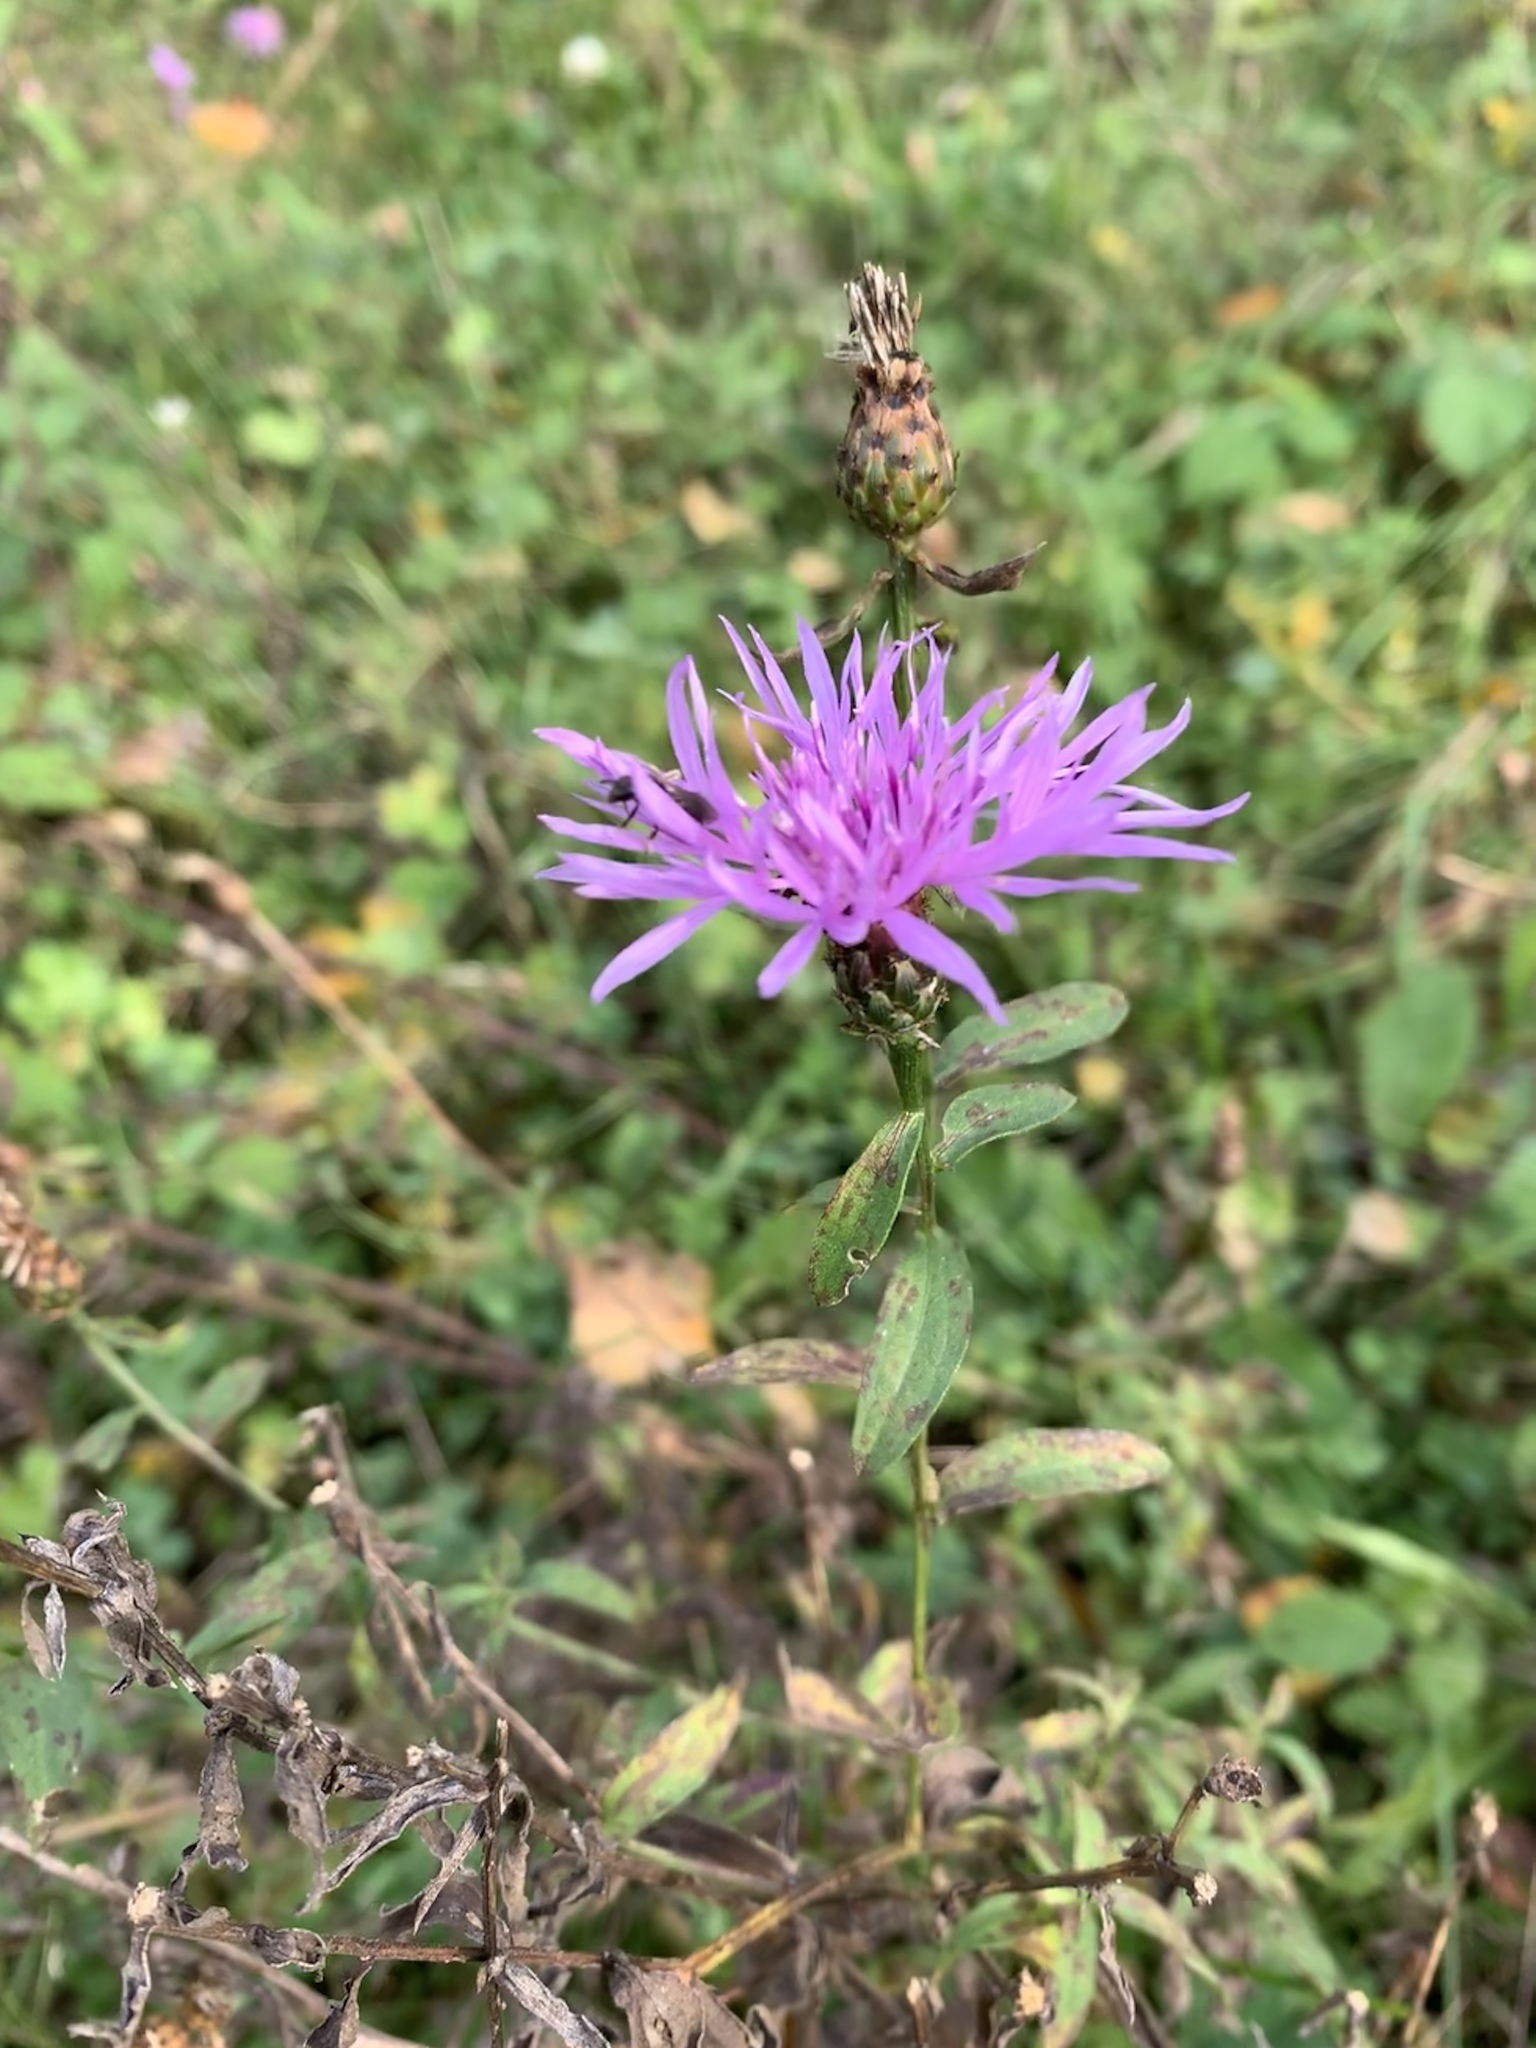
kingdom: Plantae
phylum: Tracheophyta
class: Magnoliopsida
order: Asterales
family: Asteraceae
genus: Centaurea
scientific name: Centaurea nigrescens
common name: Tyrol knapweed
